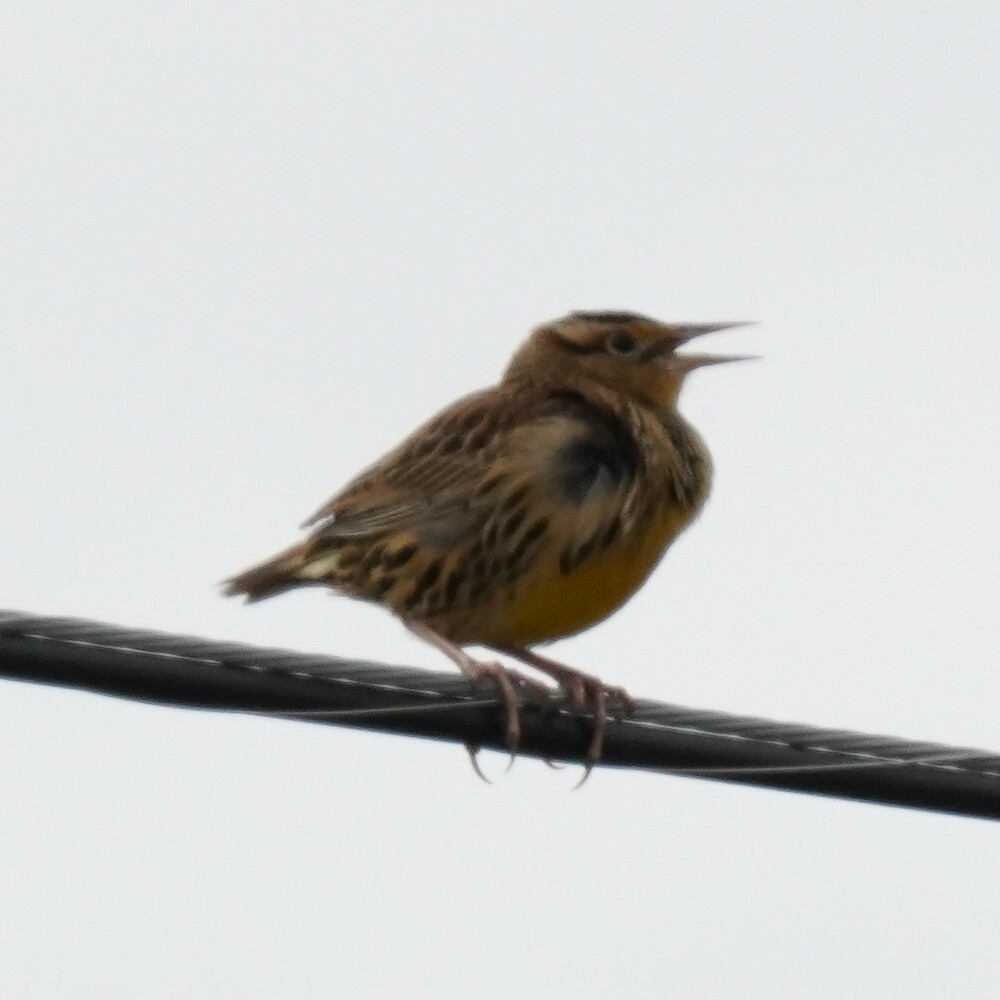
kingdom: Animalia
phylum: Chordata
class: Aves
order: Passeriformes
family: Icteridae
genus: Sturnella
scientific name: Sturnella magna
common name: Eastern meadowlark
